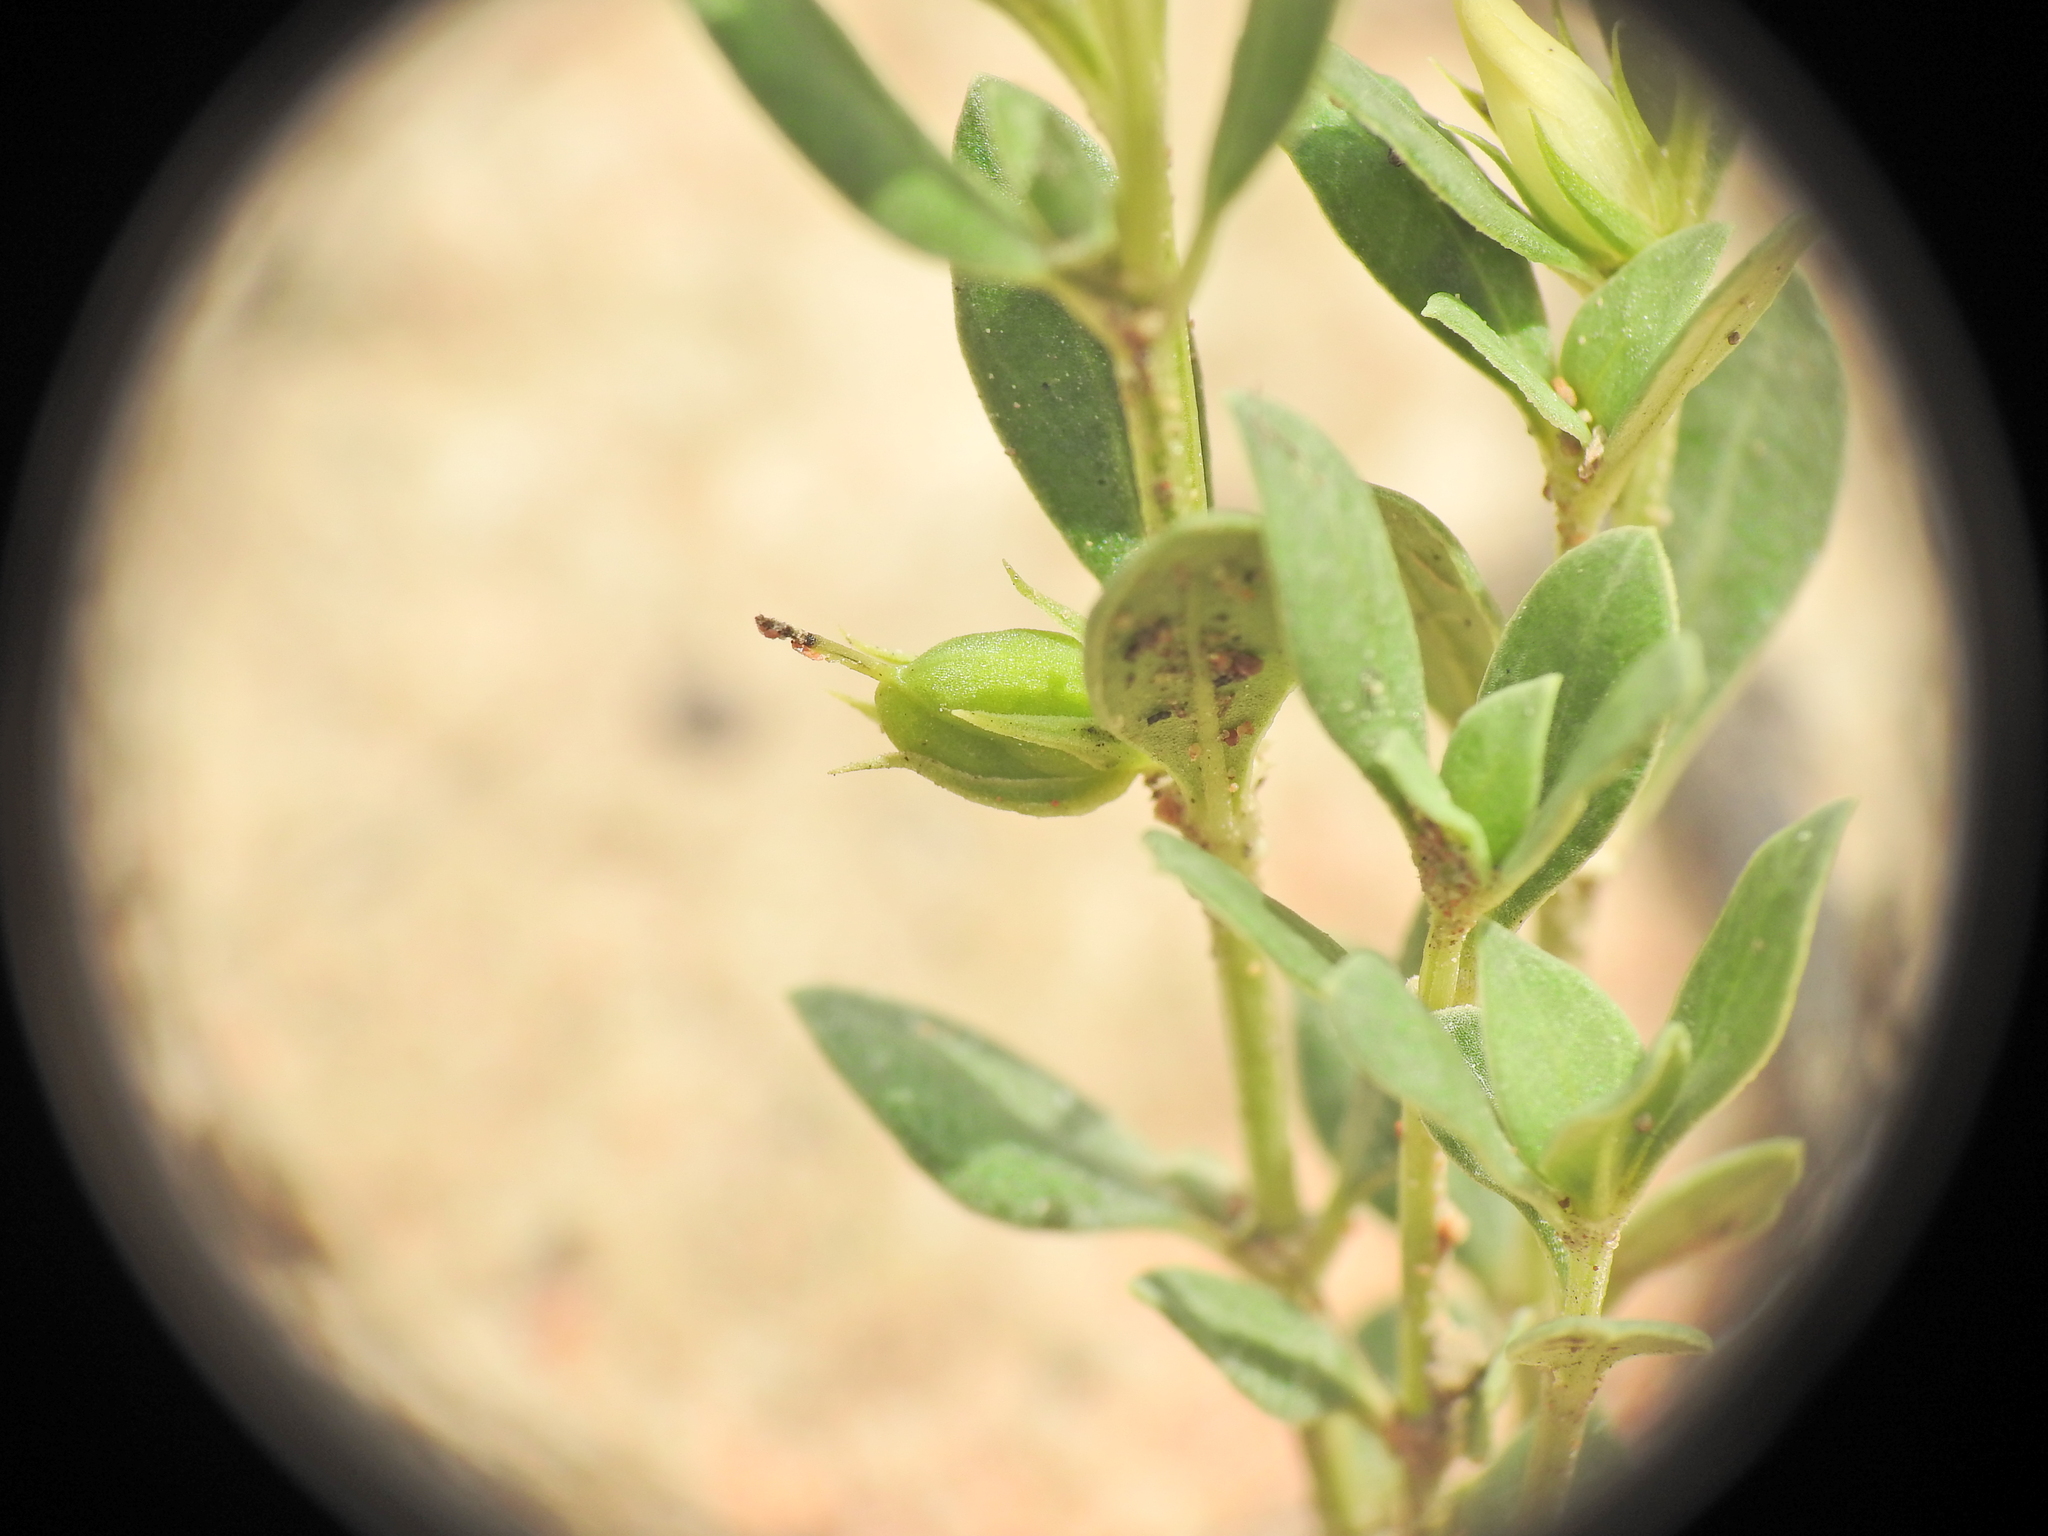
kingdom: Plantae
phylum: Tracheophyta
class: Magnoliopsida
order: Gentianales
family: Loganiaceae
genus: Orianthera
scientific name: Orianthera pusilla
